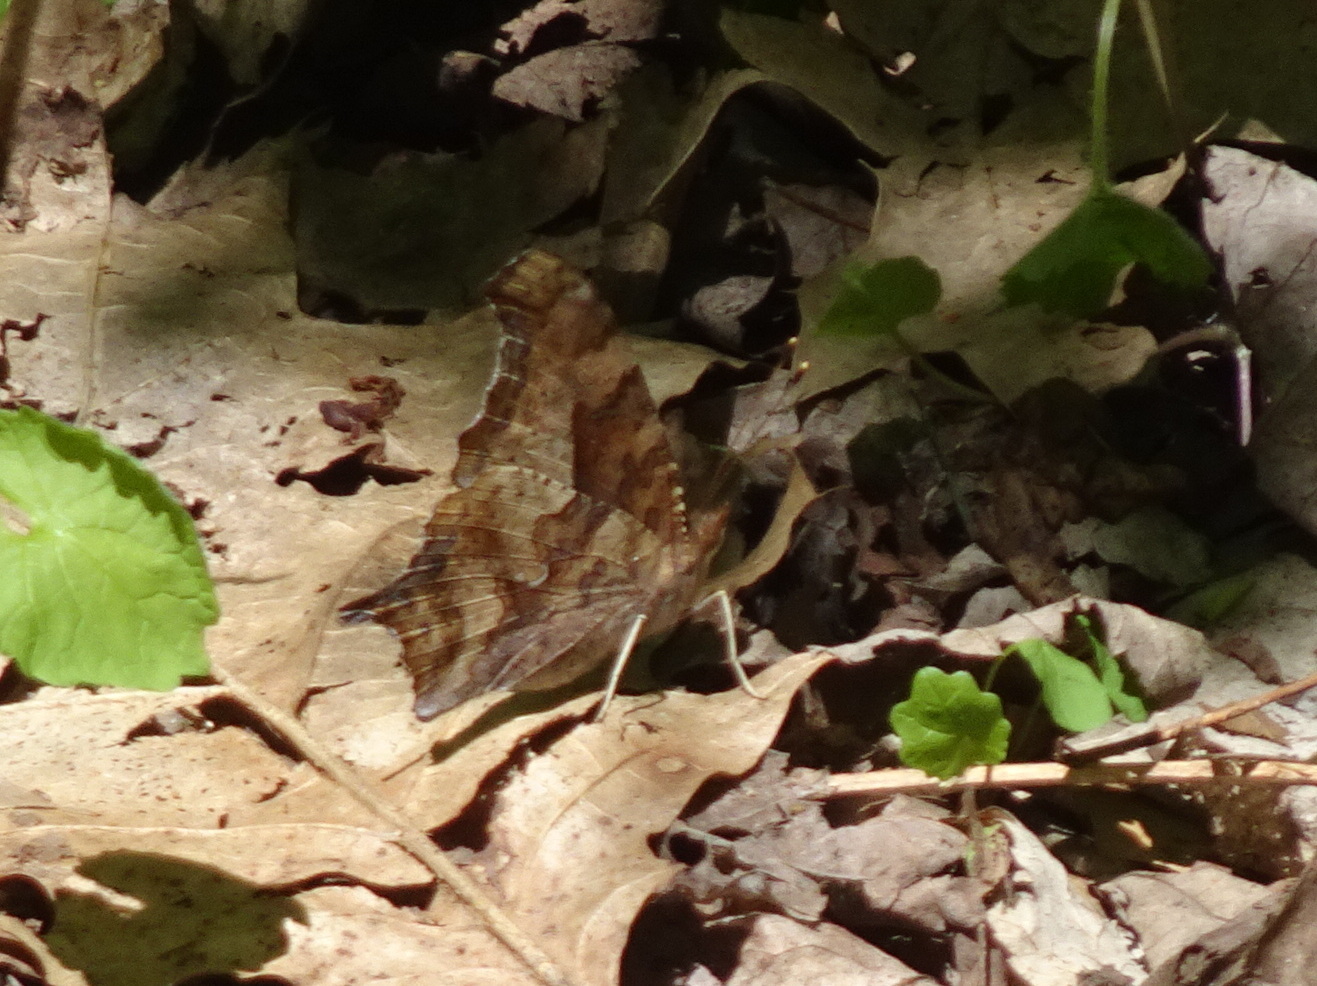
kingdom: Animalia
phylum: Arthropoda
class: Insecta
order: Lepidoptera
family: Nymphalidae
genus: Polygonia
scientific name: Polygonia interrogationis
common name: Question mark
